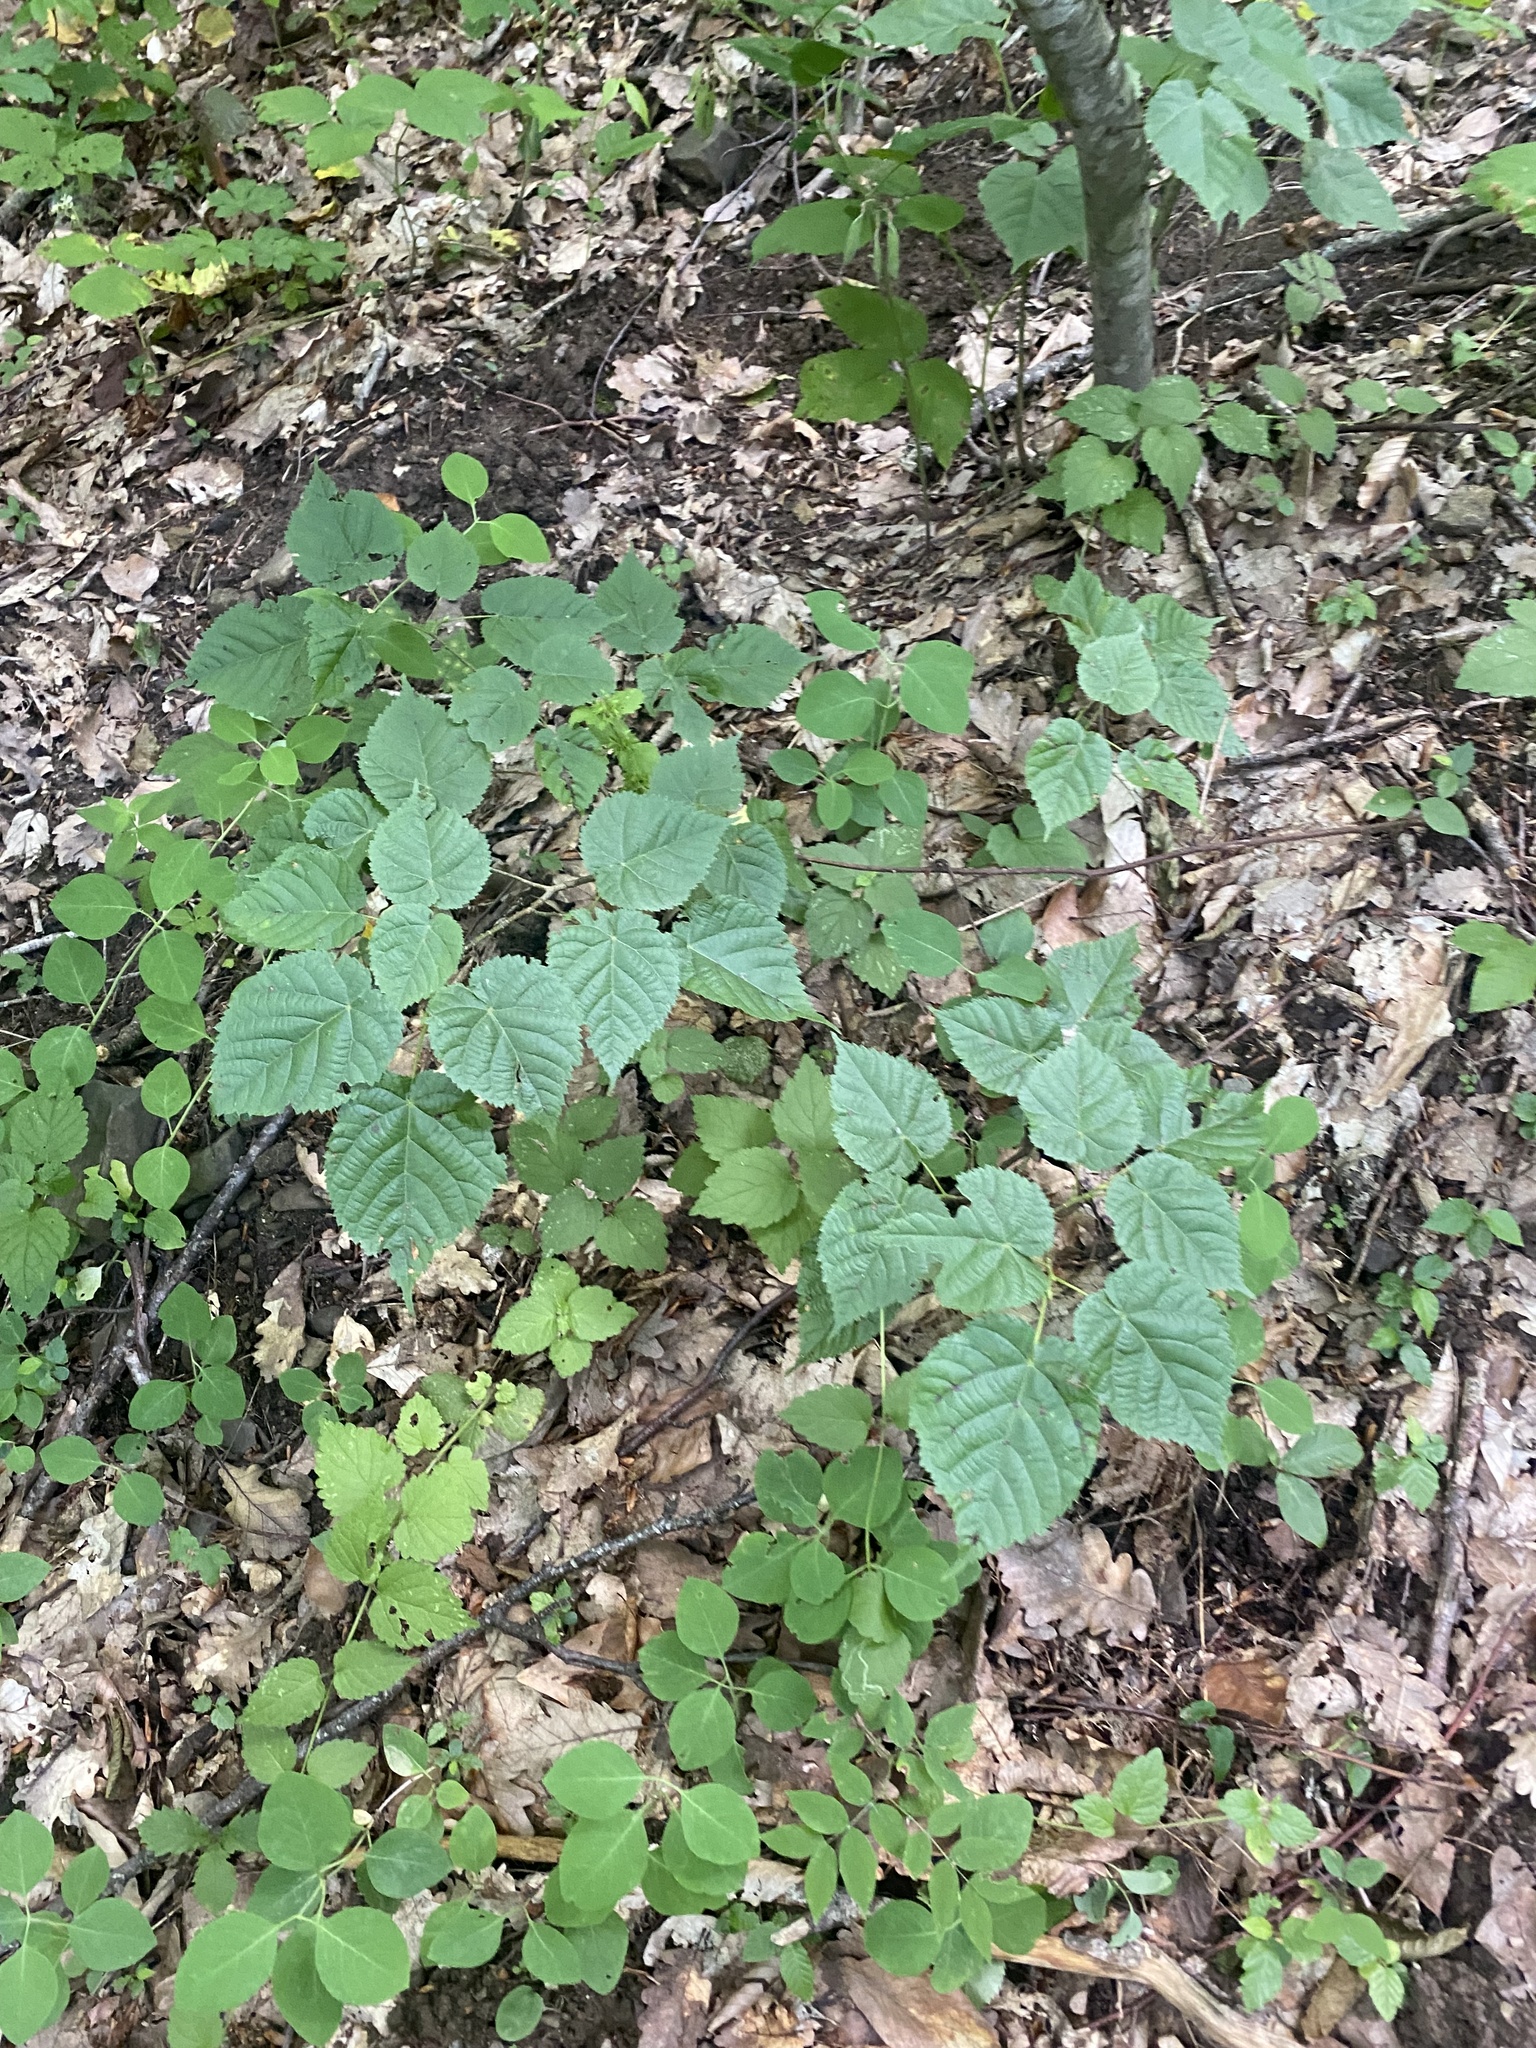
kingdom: Plantae
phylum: Tracheophyta
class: Magnoliopsida
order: Malvales
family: Malvaceae
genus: Tilia
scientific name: Tilia
